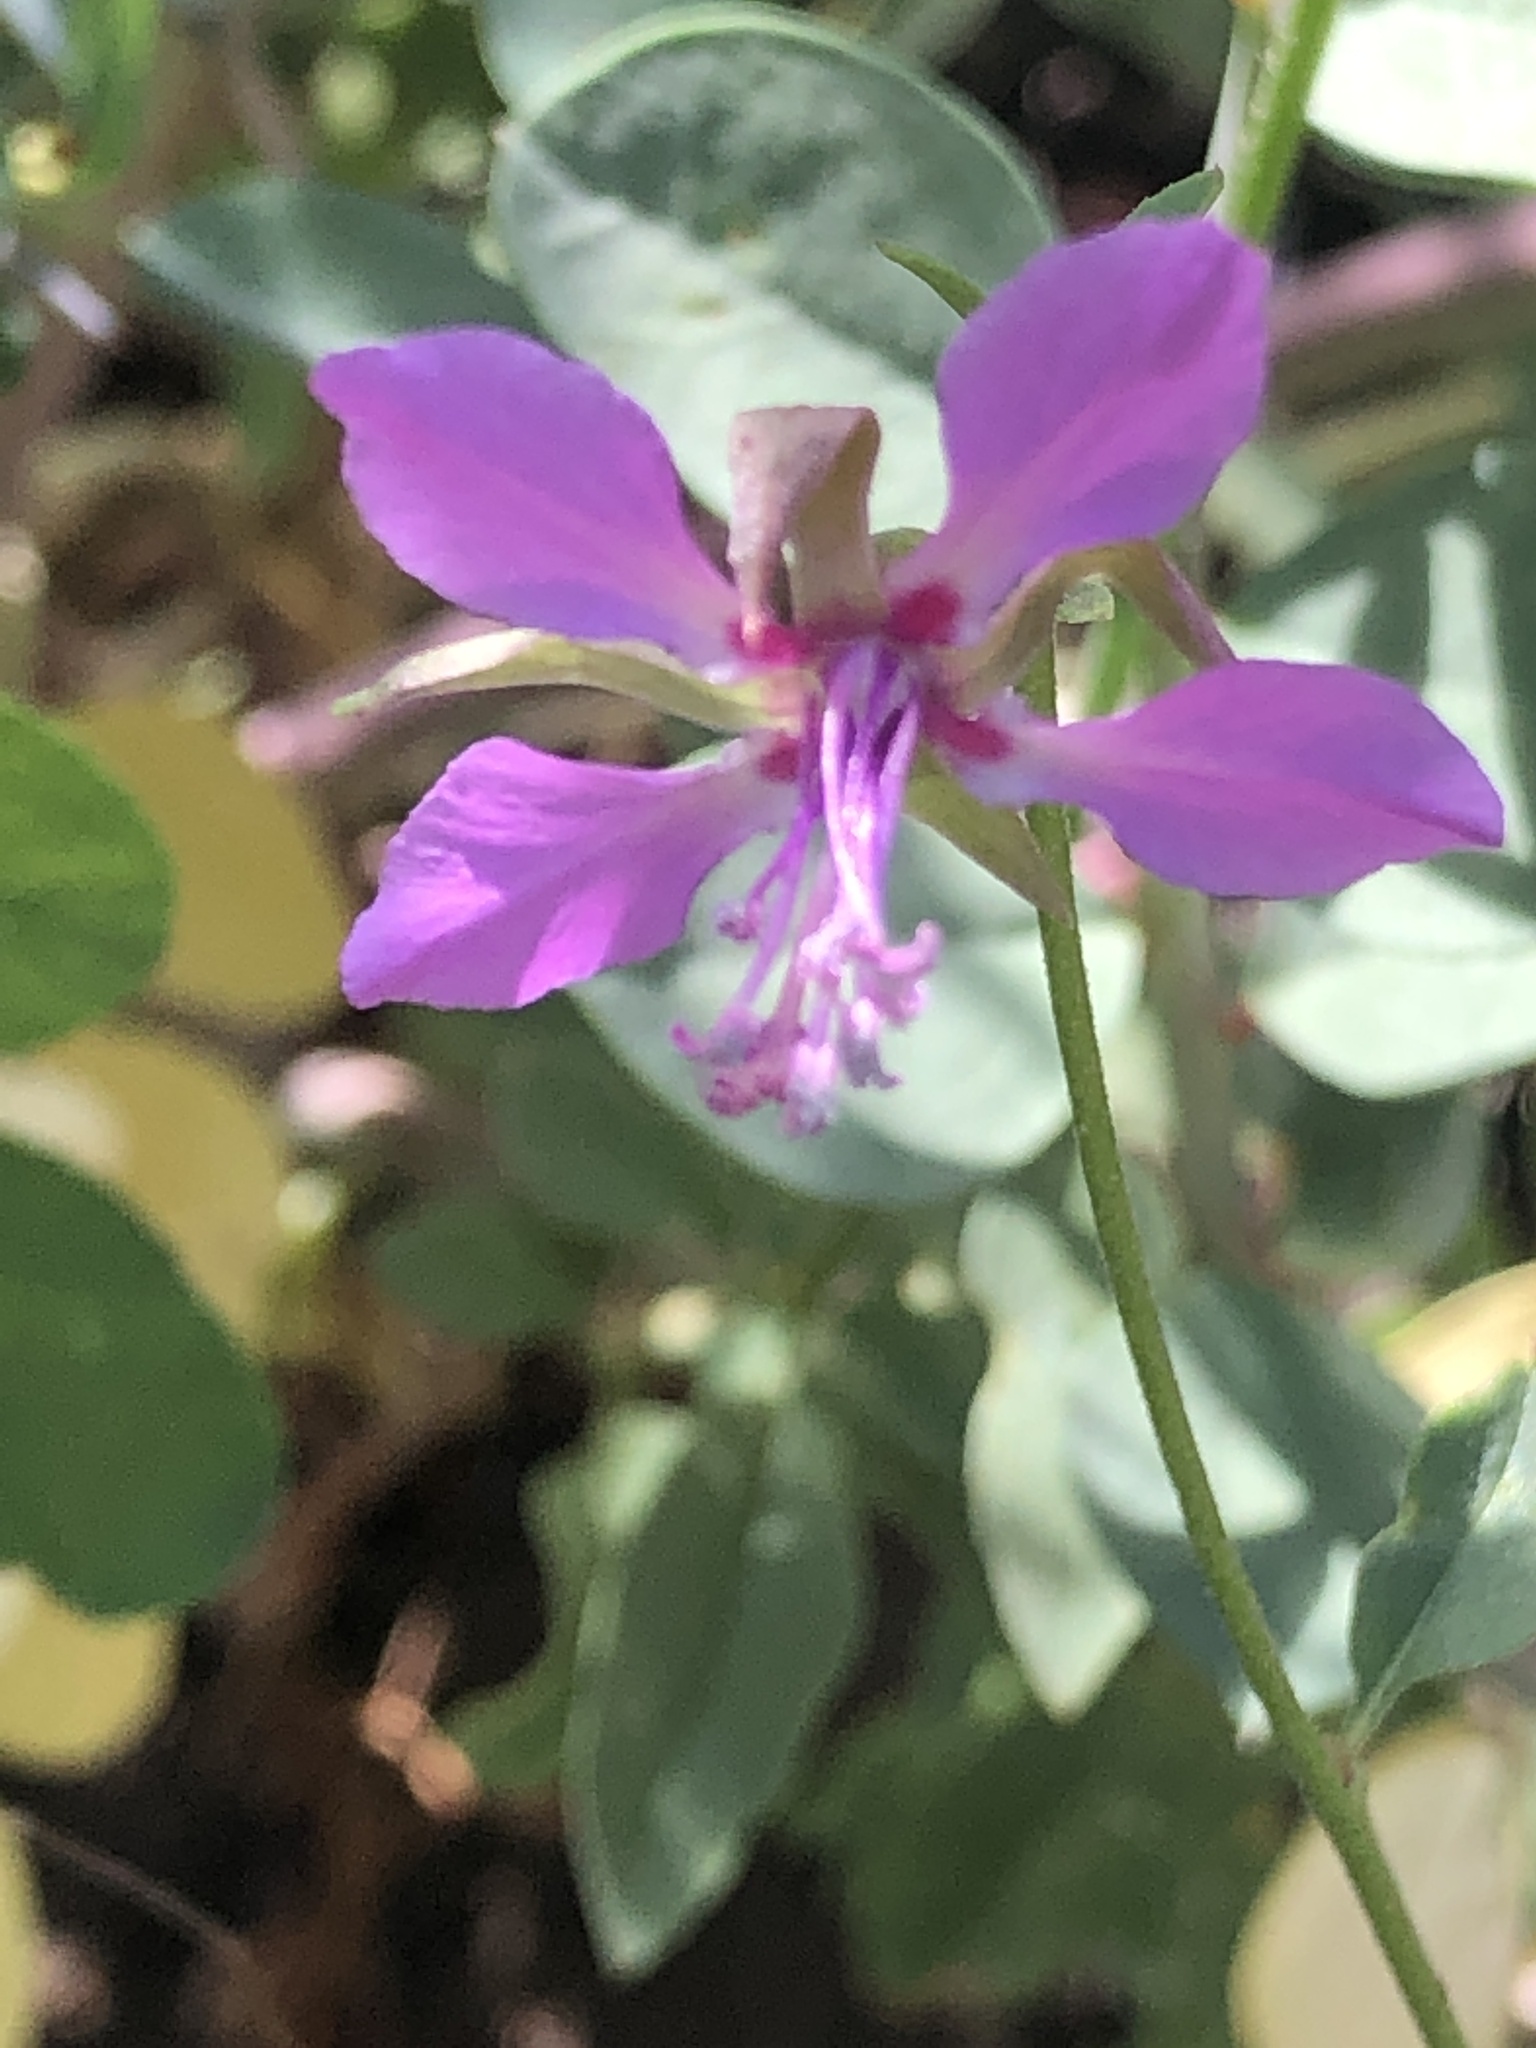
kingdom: Plantae
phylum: Tracheophyta
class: Magnoliopsida
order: Myrtales
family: Onagraceae
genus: Clarkia
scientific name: Clarkia rhomboidea
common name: Broadleaf clarkia
